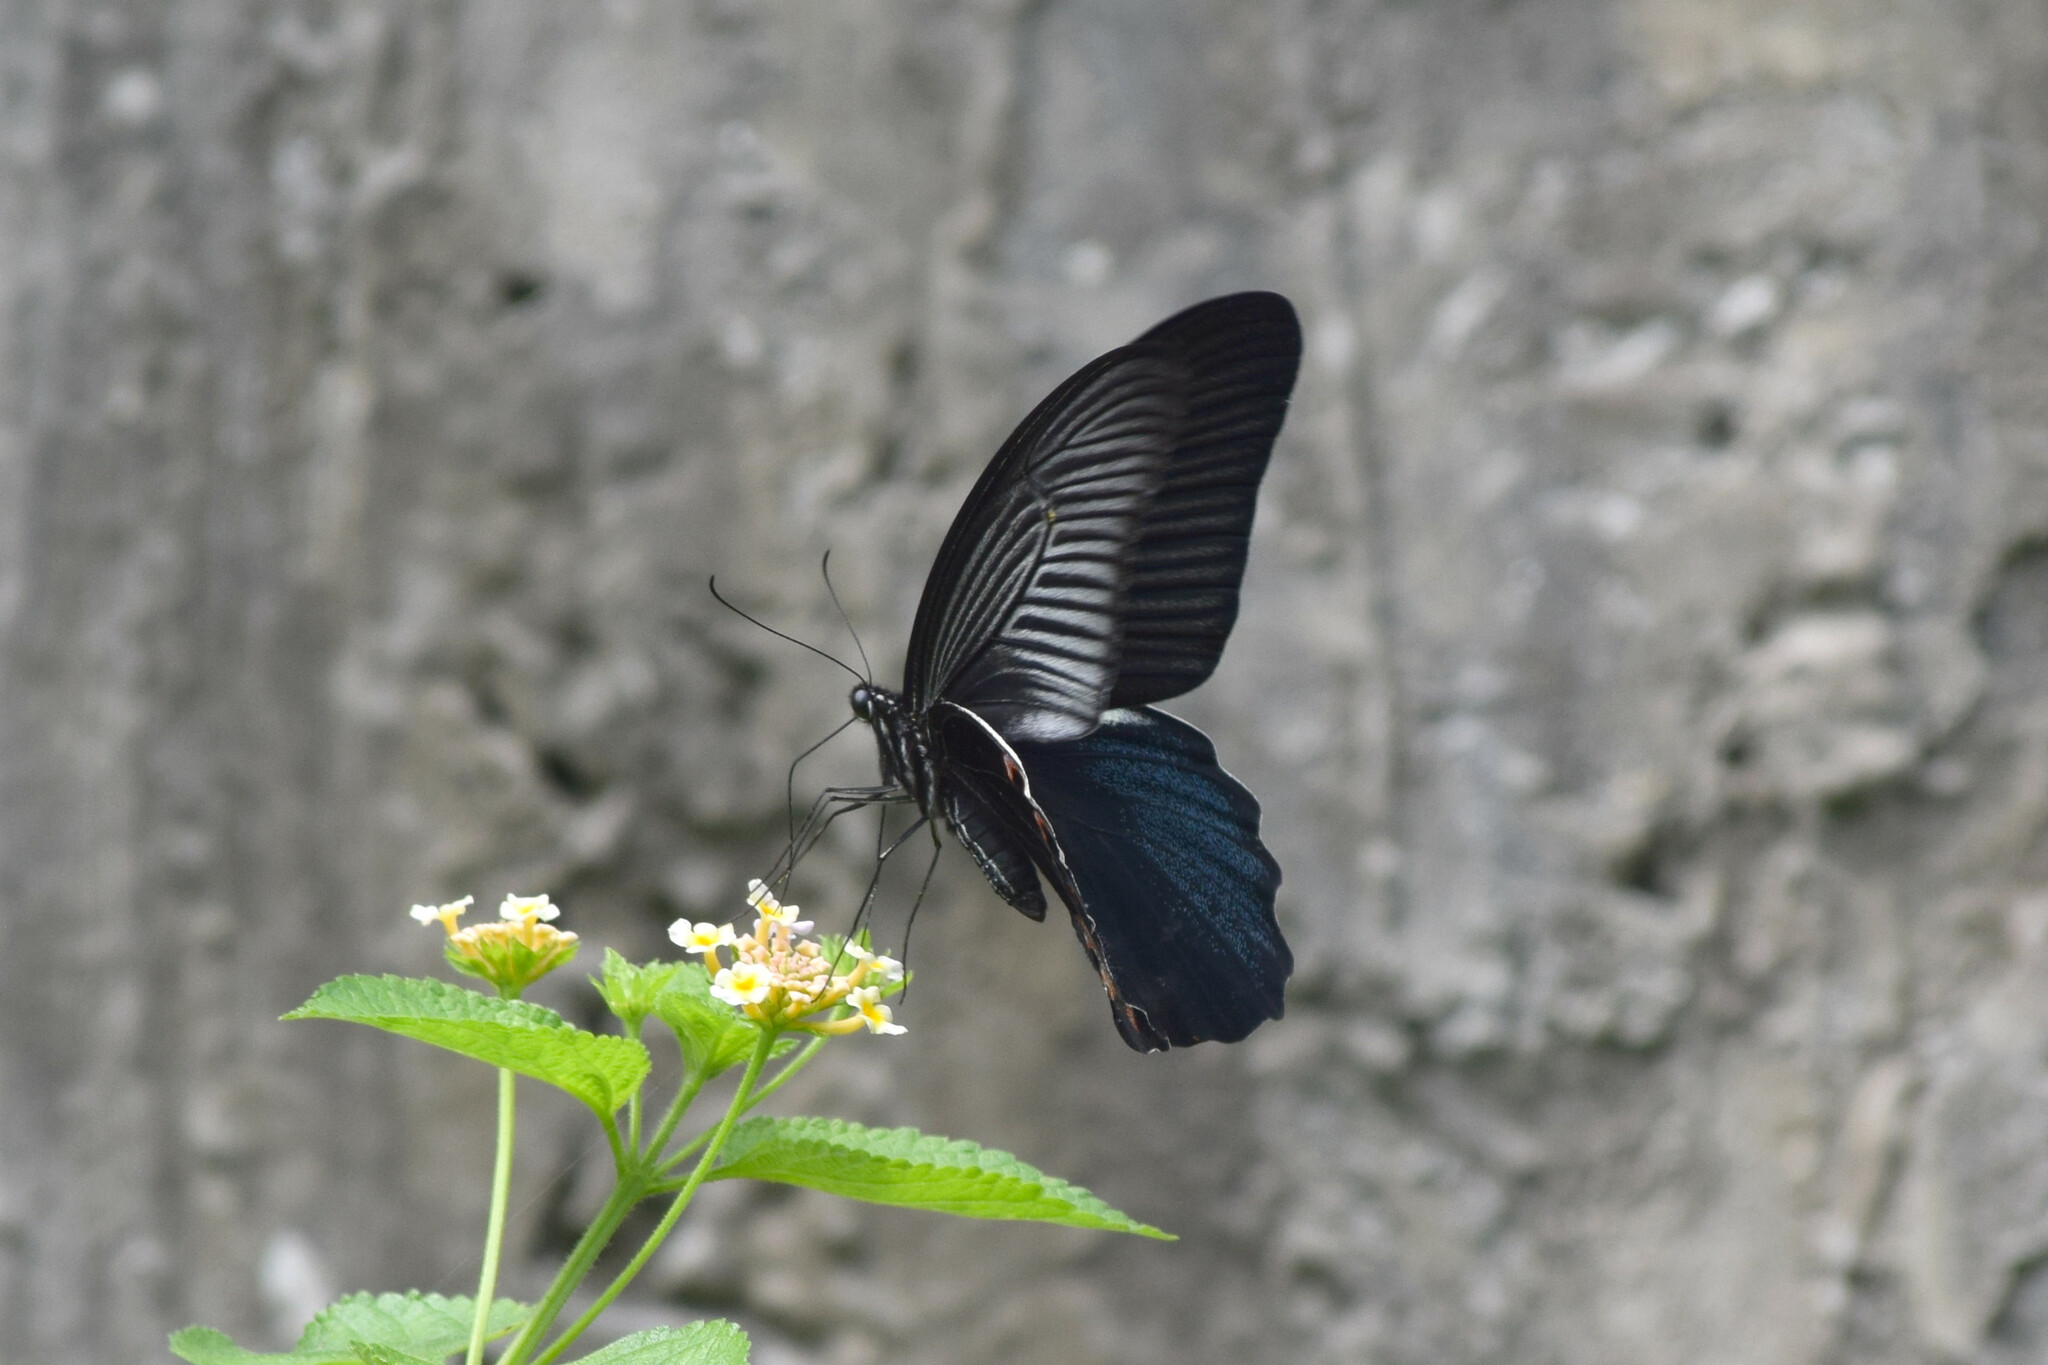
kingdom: Animalia
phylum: Arthropoda
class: Insecta
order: Lepidoptera
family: Papilionidae
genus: Papilio
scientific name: Papilio protenor
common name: Spangle
